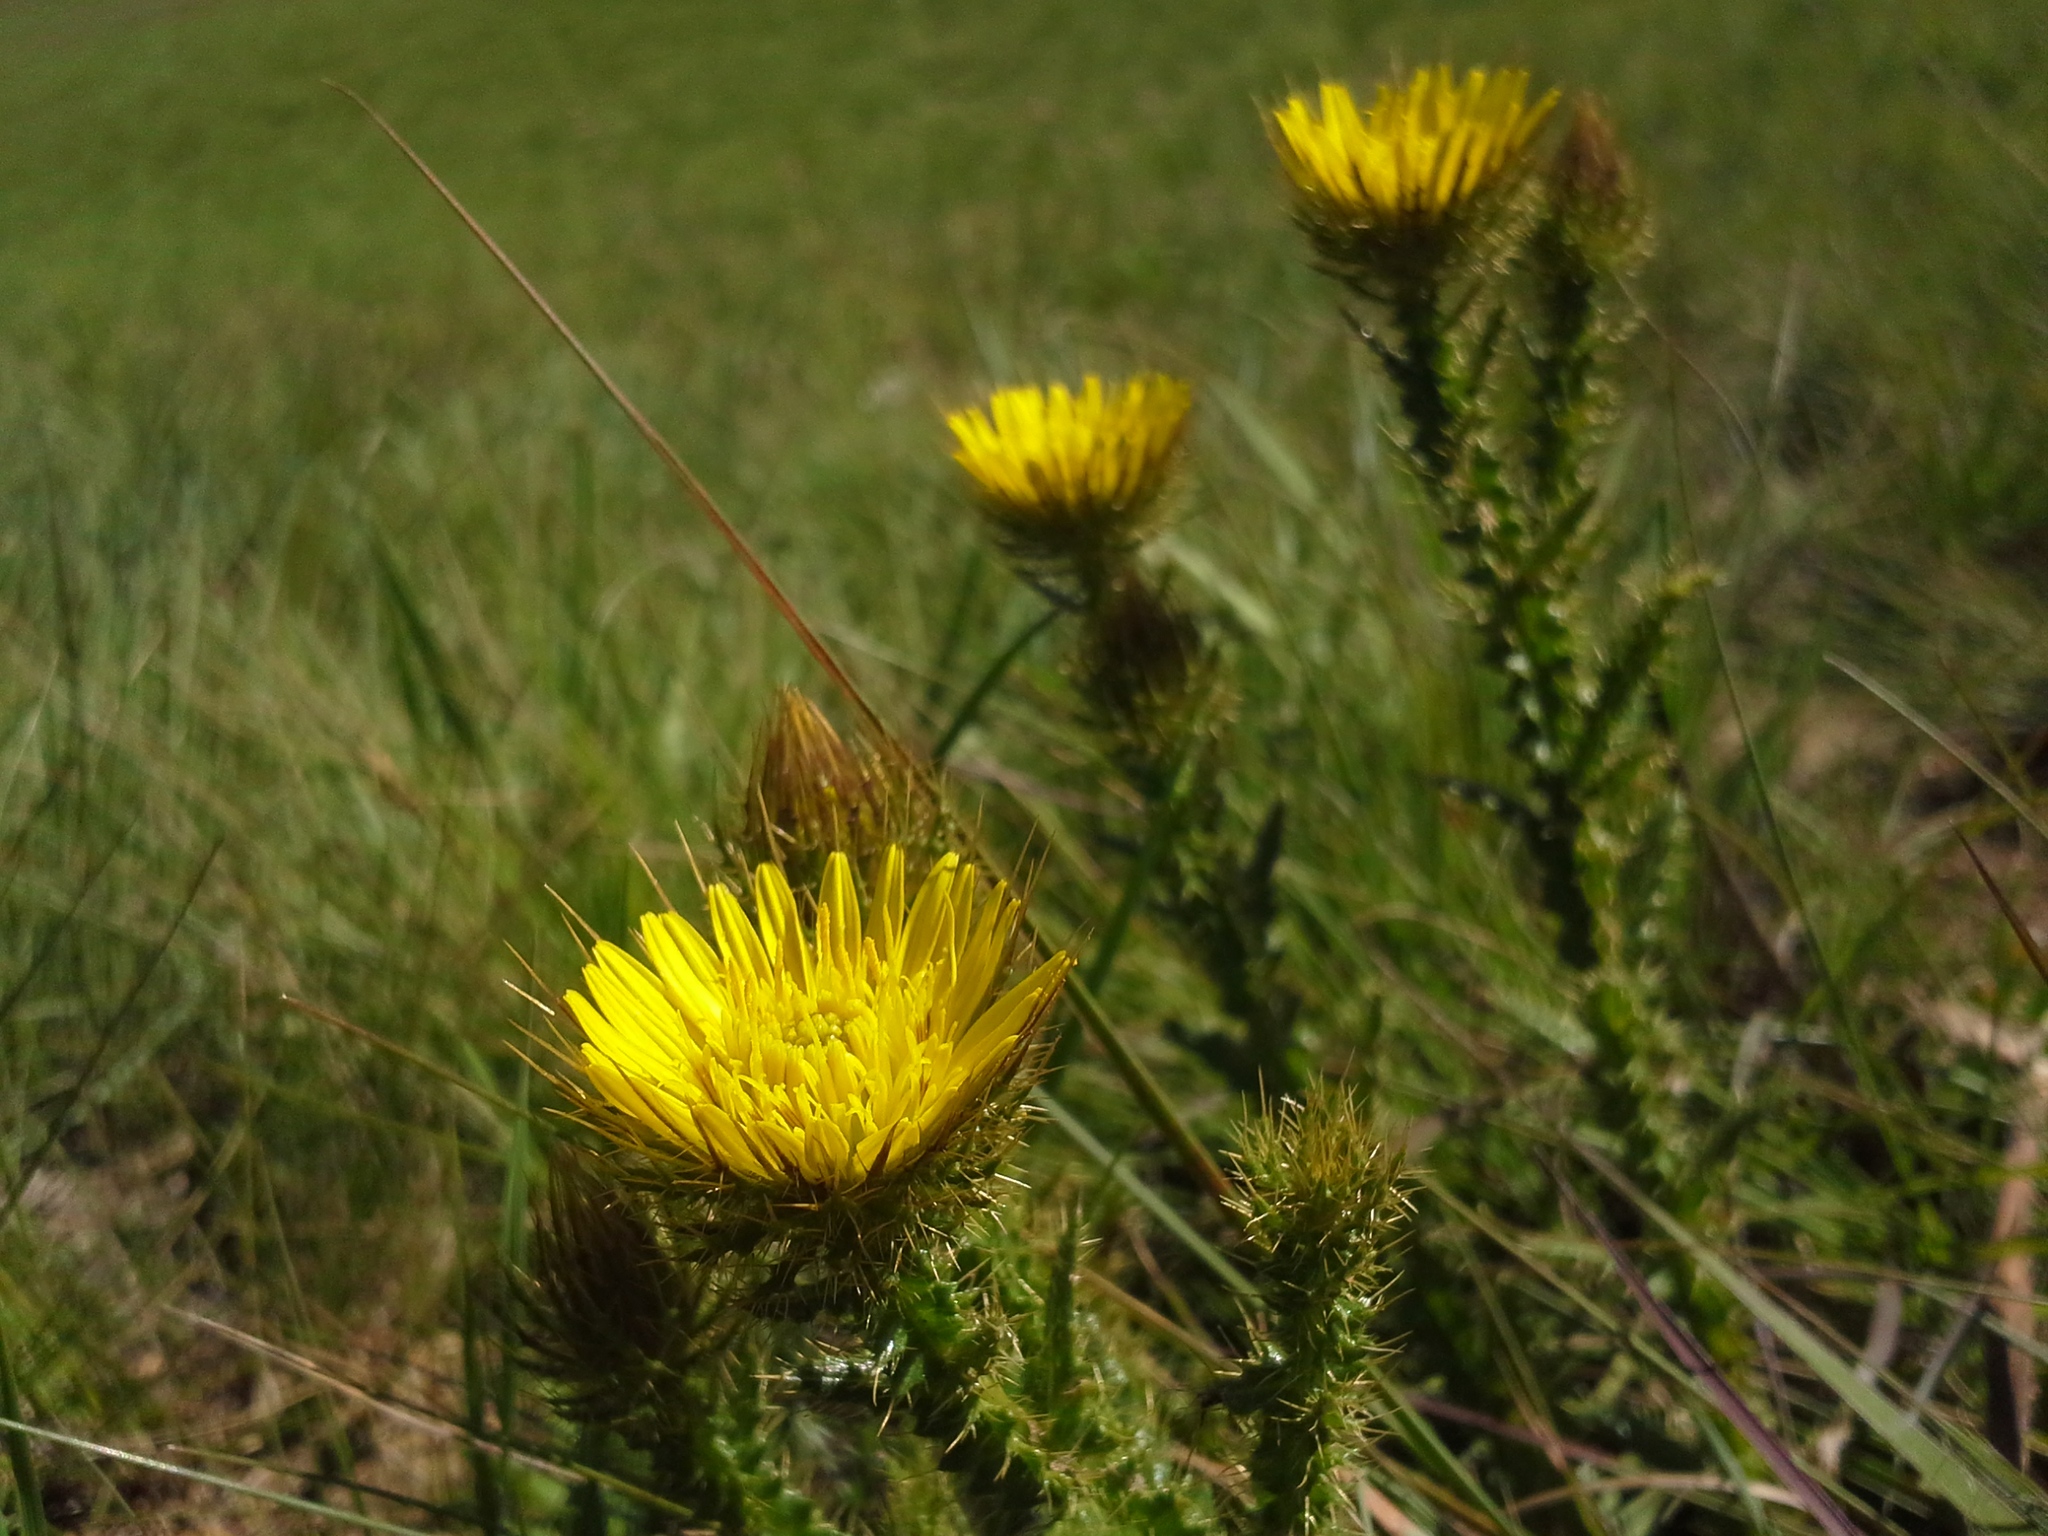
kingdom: Plantae
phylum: Tracheophyta
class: Magnoliopsida
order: Asterales
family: Asteraceae
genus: Berkheya
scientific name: Berkheya echinacea
